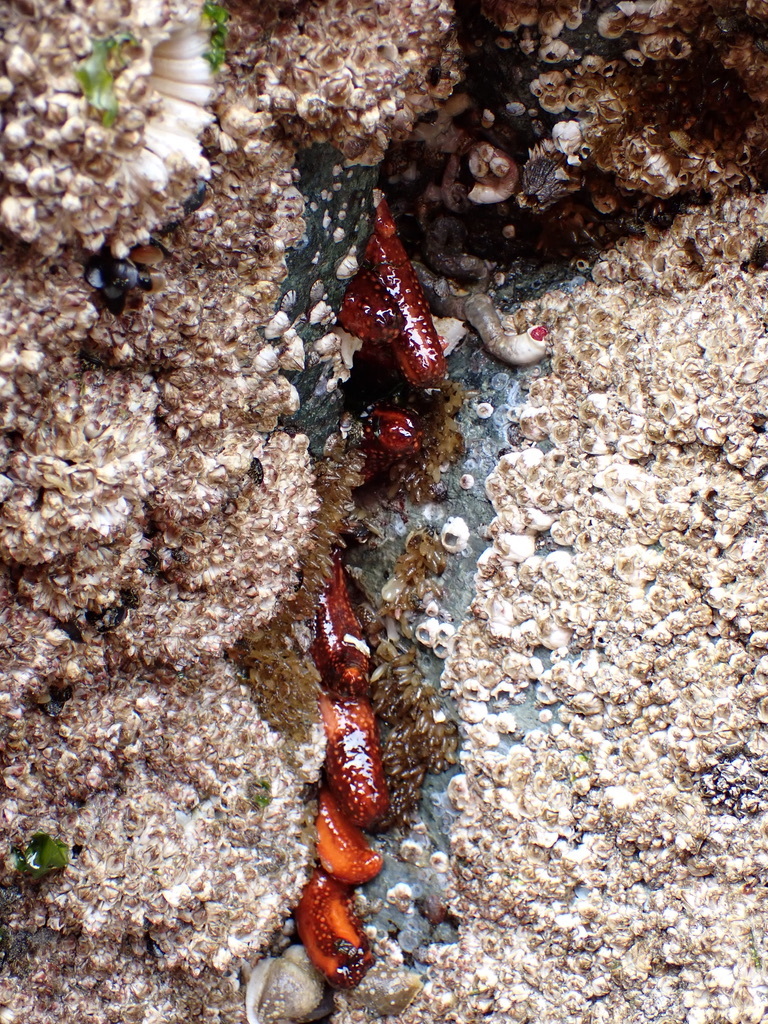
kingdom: Animalia
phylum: Echinodermata
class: Holothuroidea
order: Dendrochirotida
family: Cucumariidae
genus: Cucumaria
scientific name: Cucumaria miniata
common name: Orange sea cucumber
